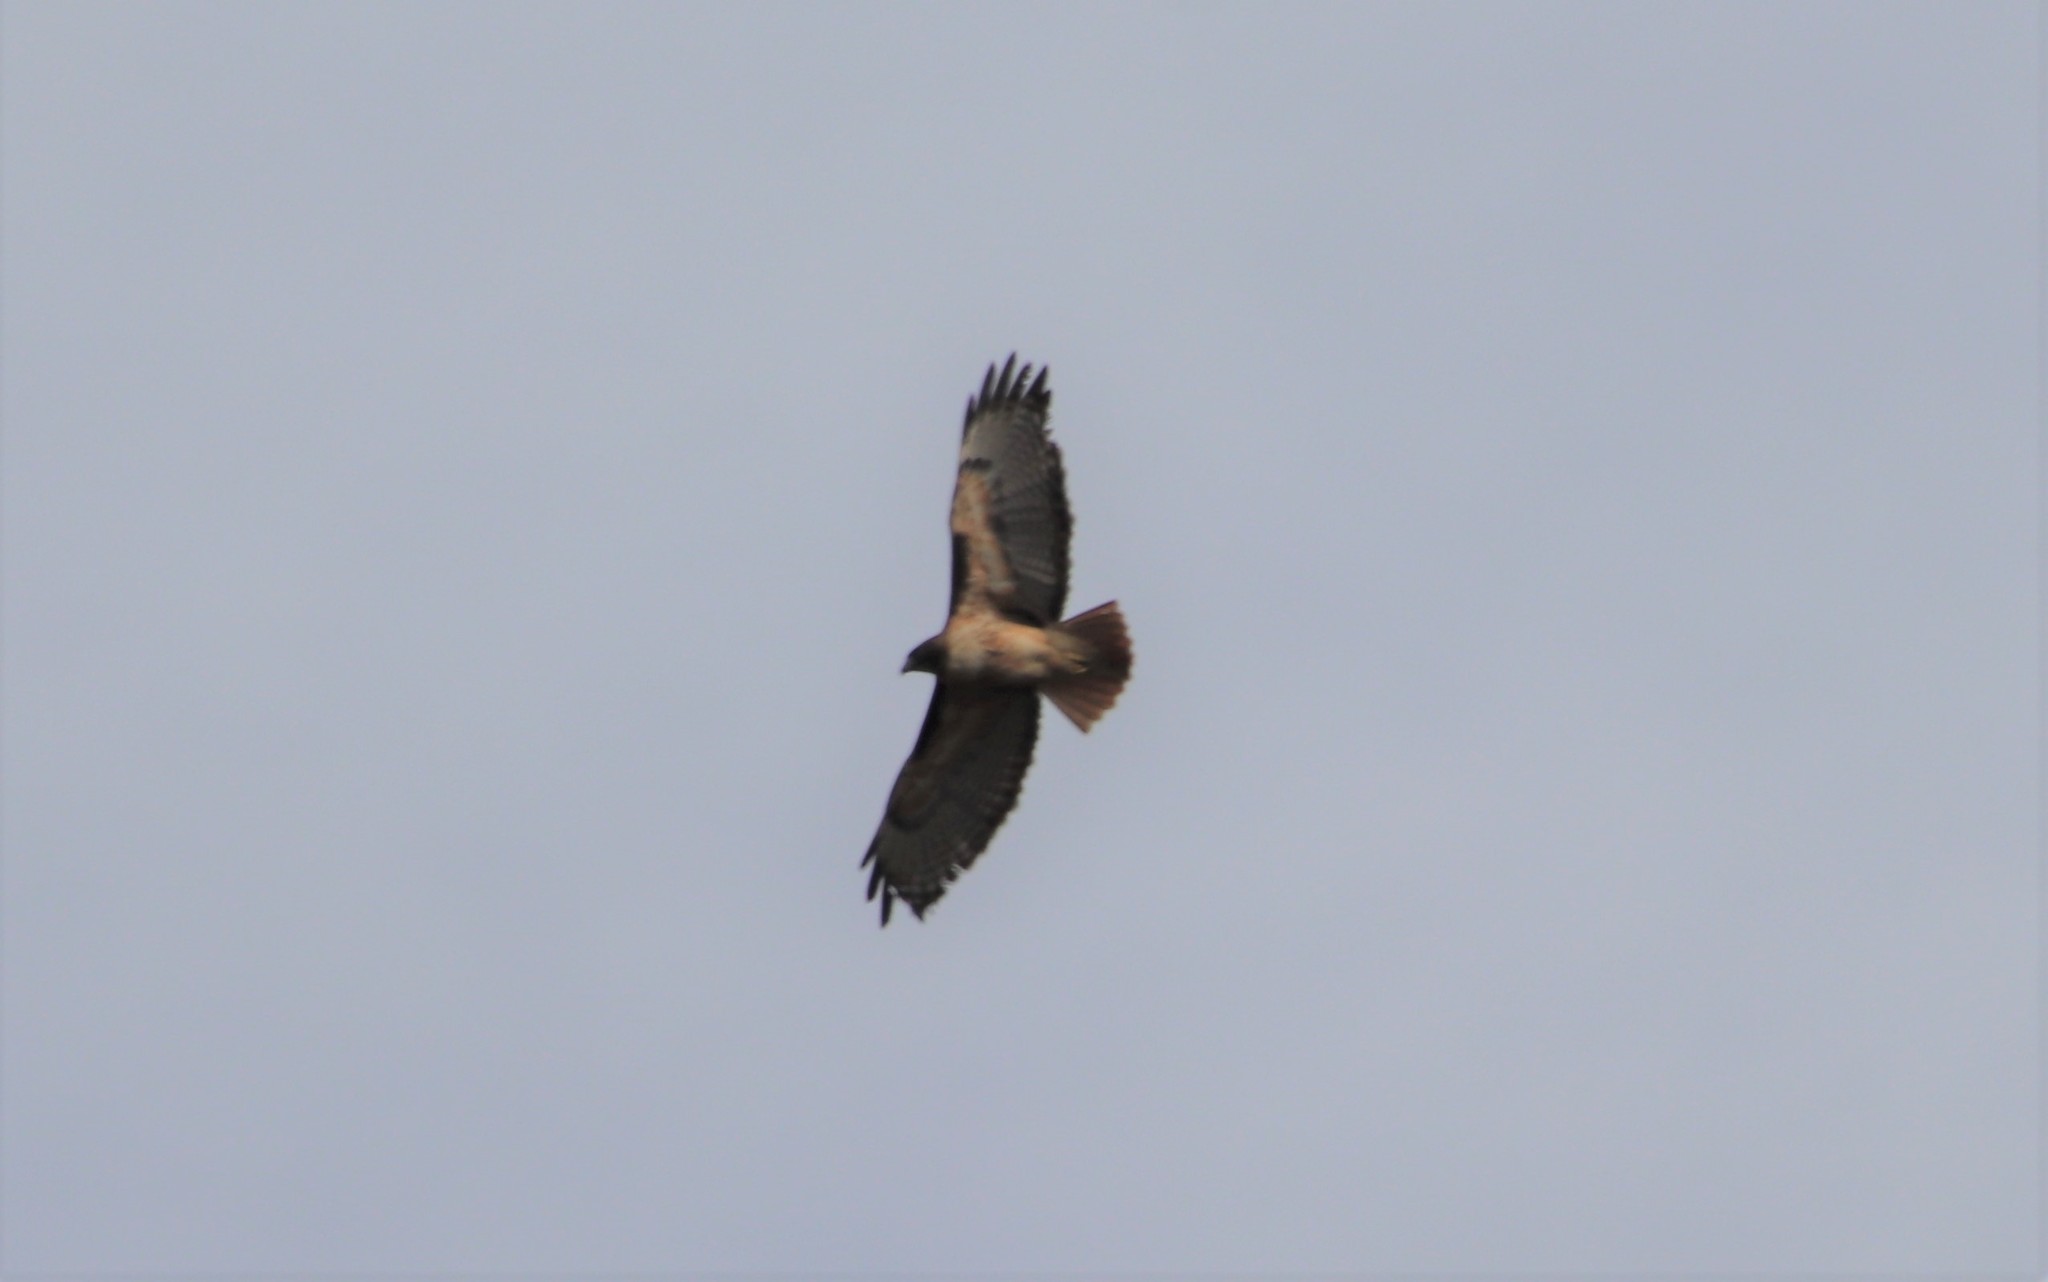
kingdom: Animalia
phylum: Chordata
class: Aves
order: Accipitriformes
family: Accipitridae
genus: Buteo
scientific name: Buteo jamaicensis
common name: Red-tailed hawk
